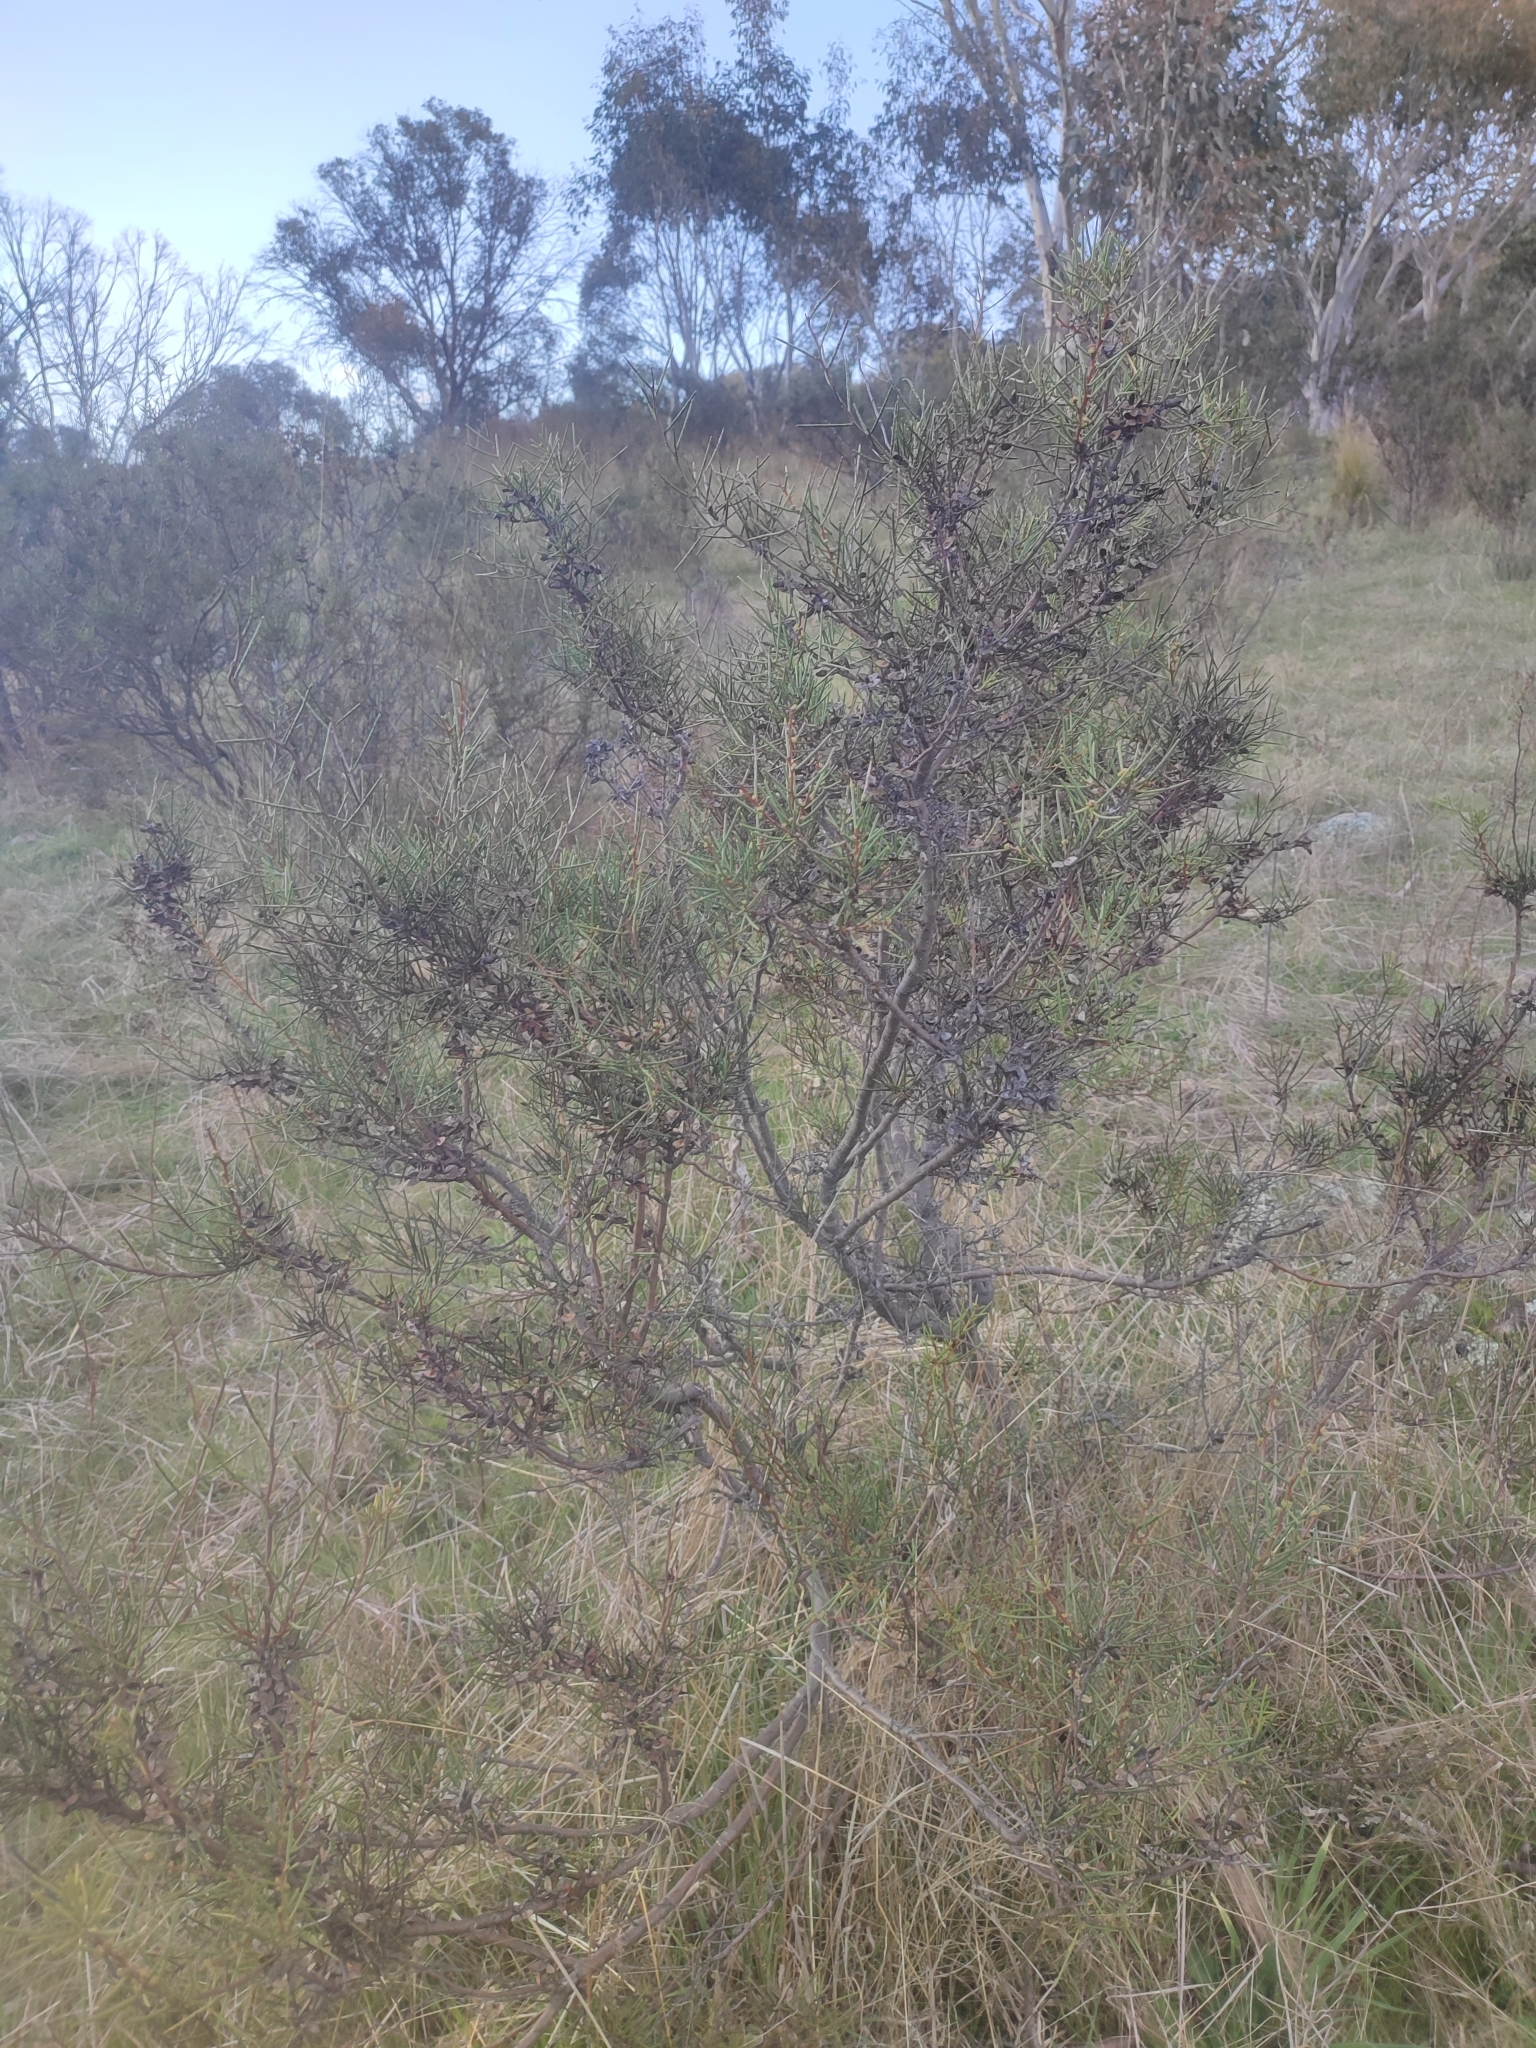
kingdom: Plantae
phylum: Tracheophyta
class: Magnoliopsida
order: Proteales
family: Proteaceae
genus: Hakea
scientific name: Hakea microcarpa
